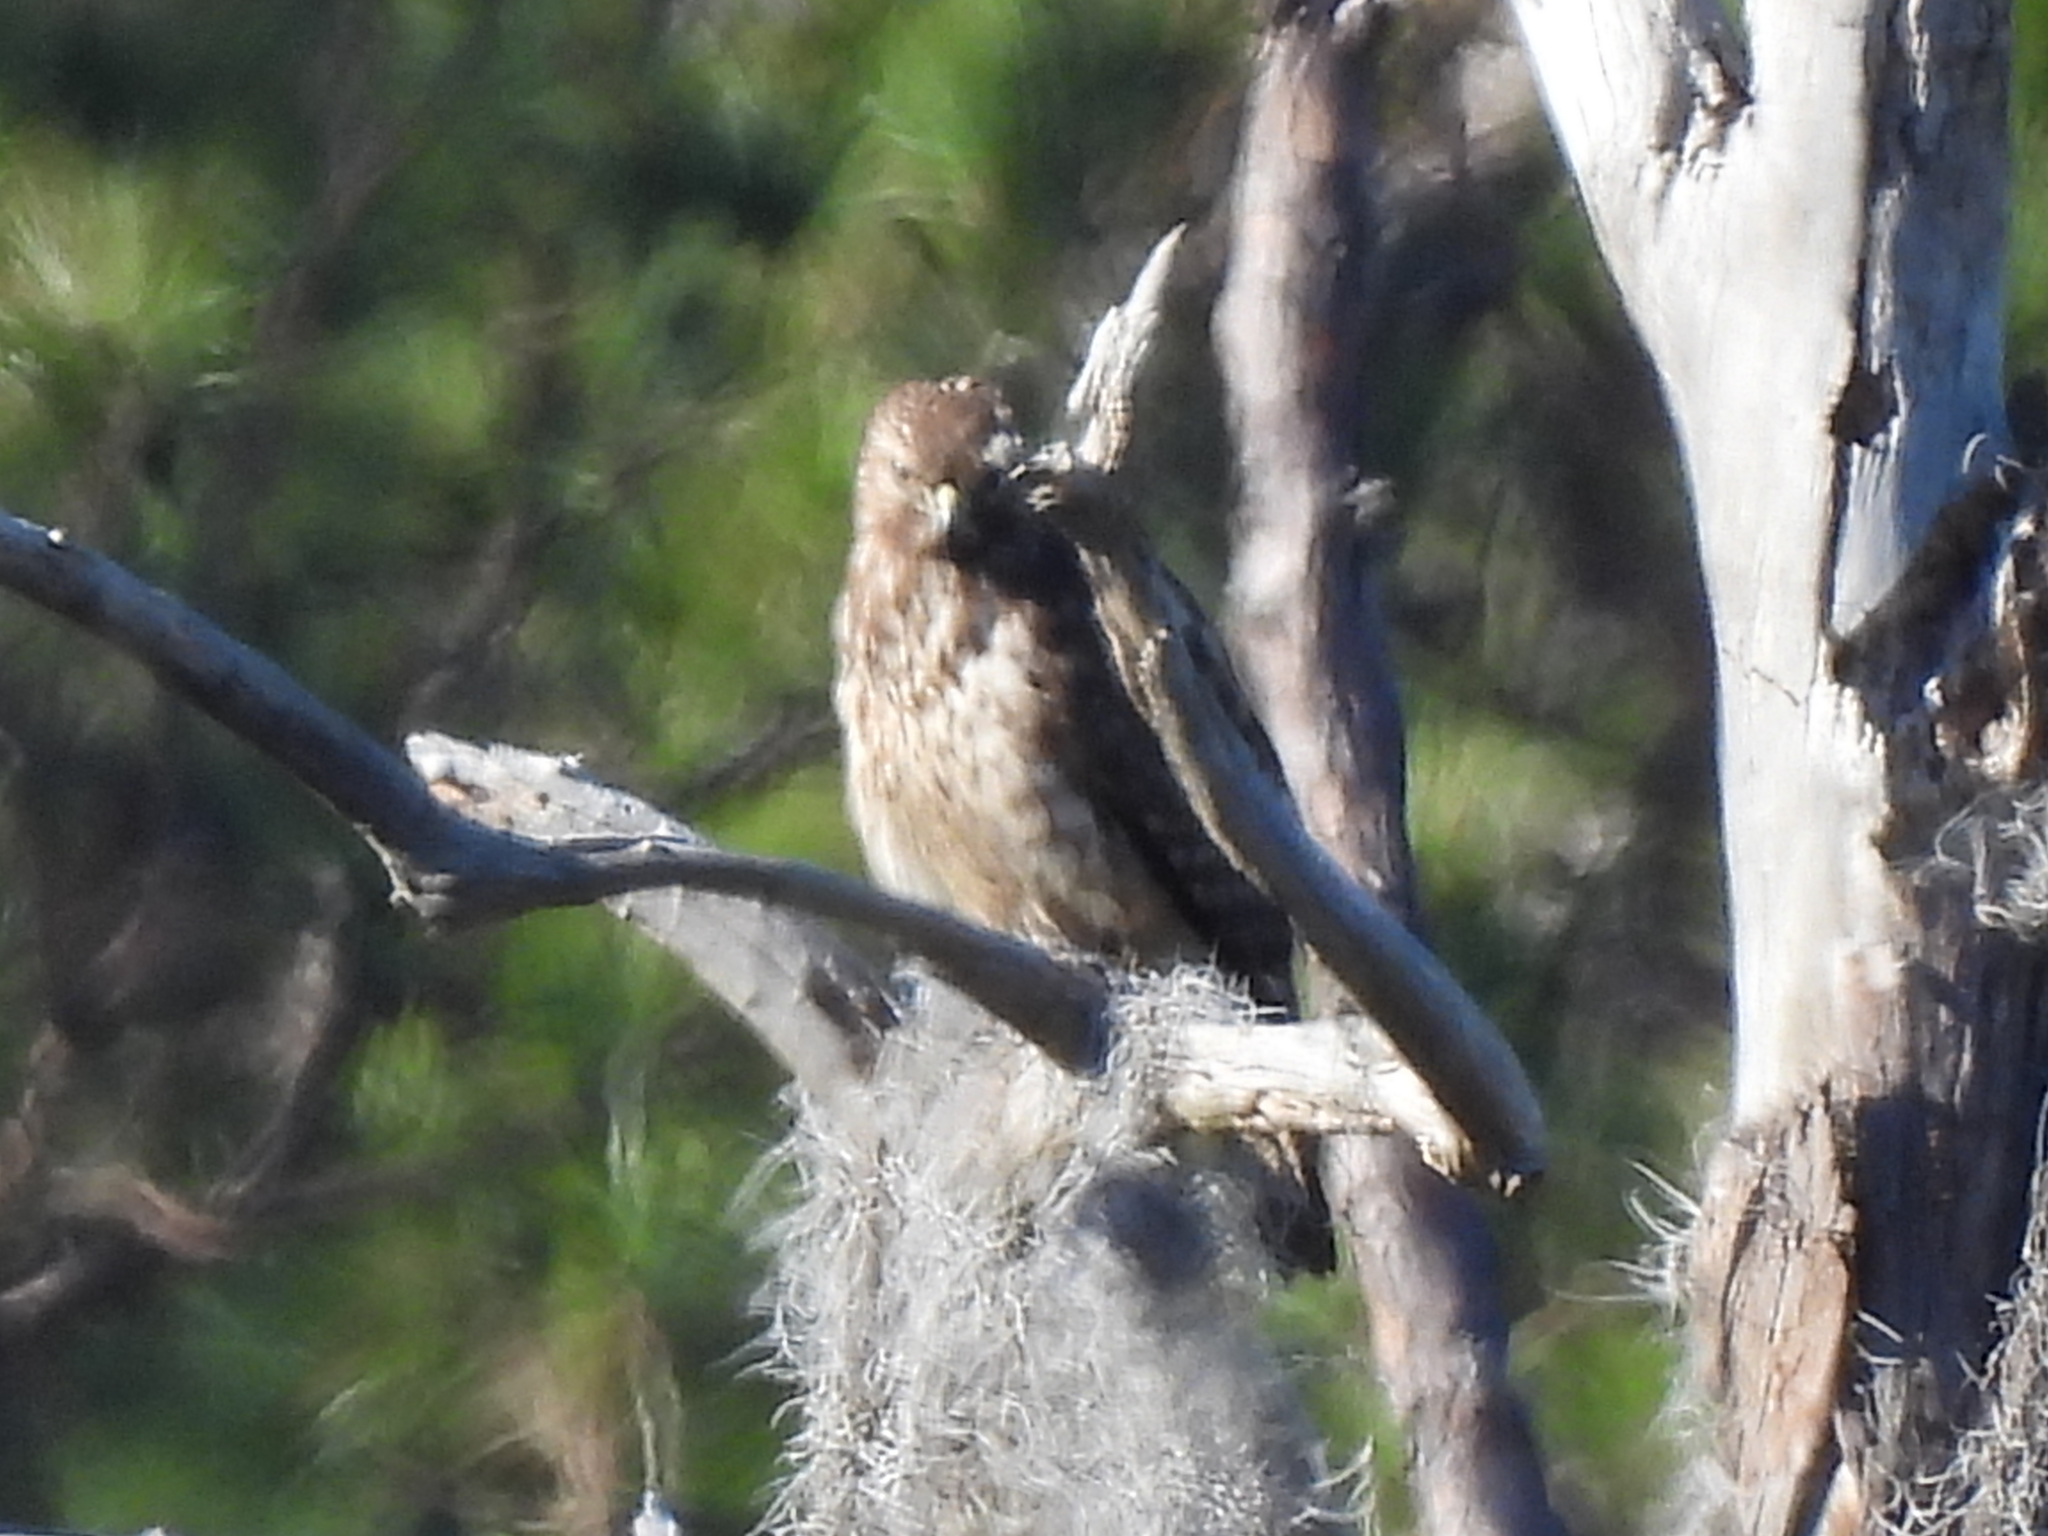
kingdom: Animalia
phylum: Chordata
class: Aves
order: Accipitriformes
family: Accipitridae
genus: Buteo
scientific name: Buteo lineatus
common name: Red-shouldered hawk
